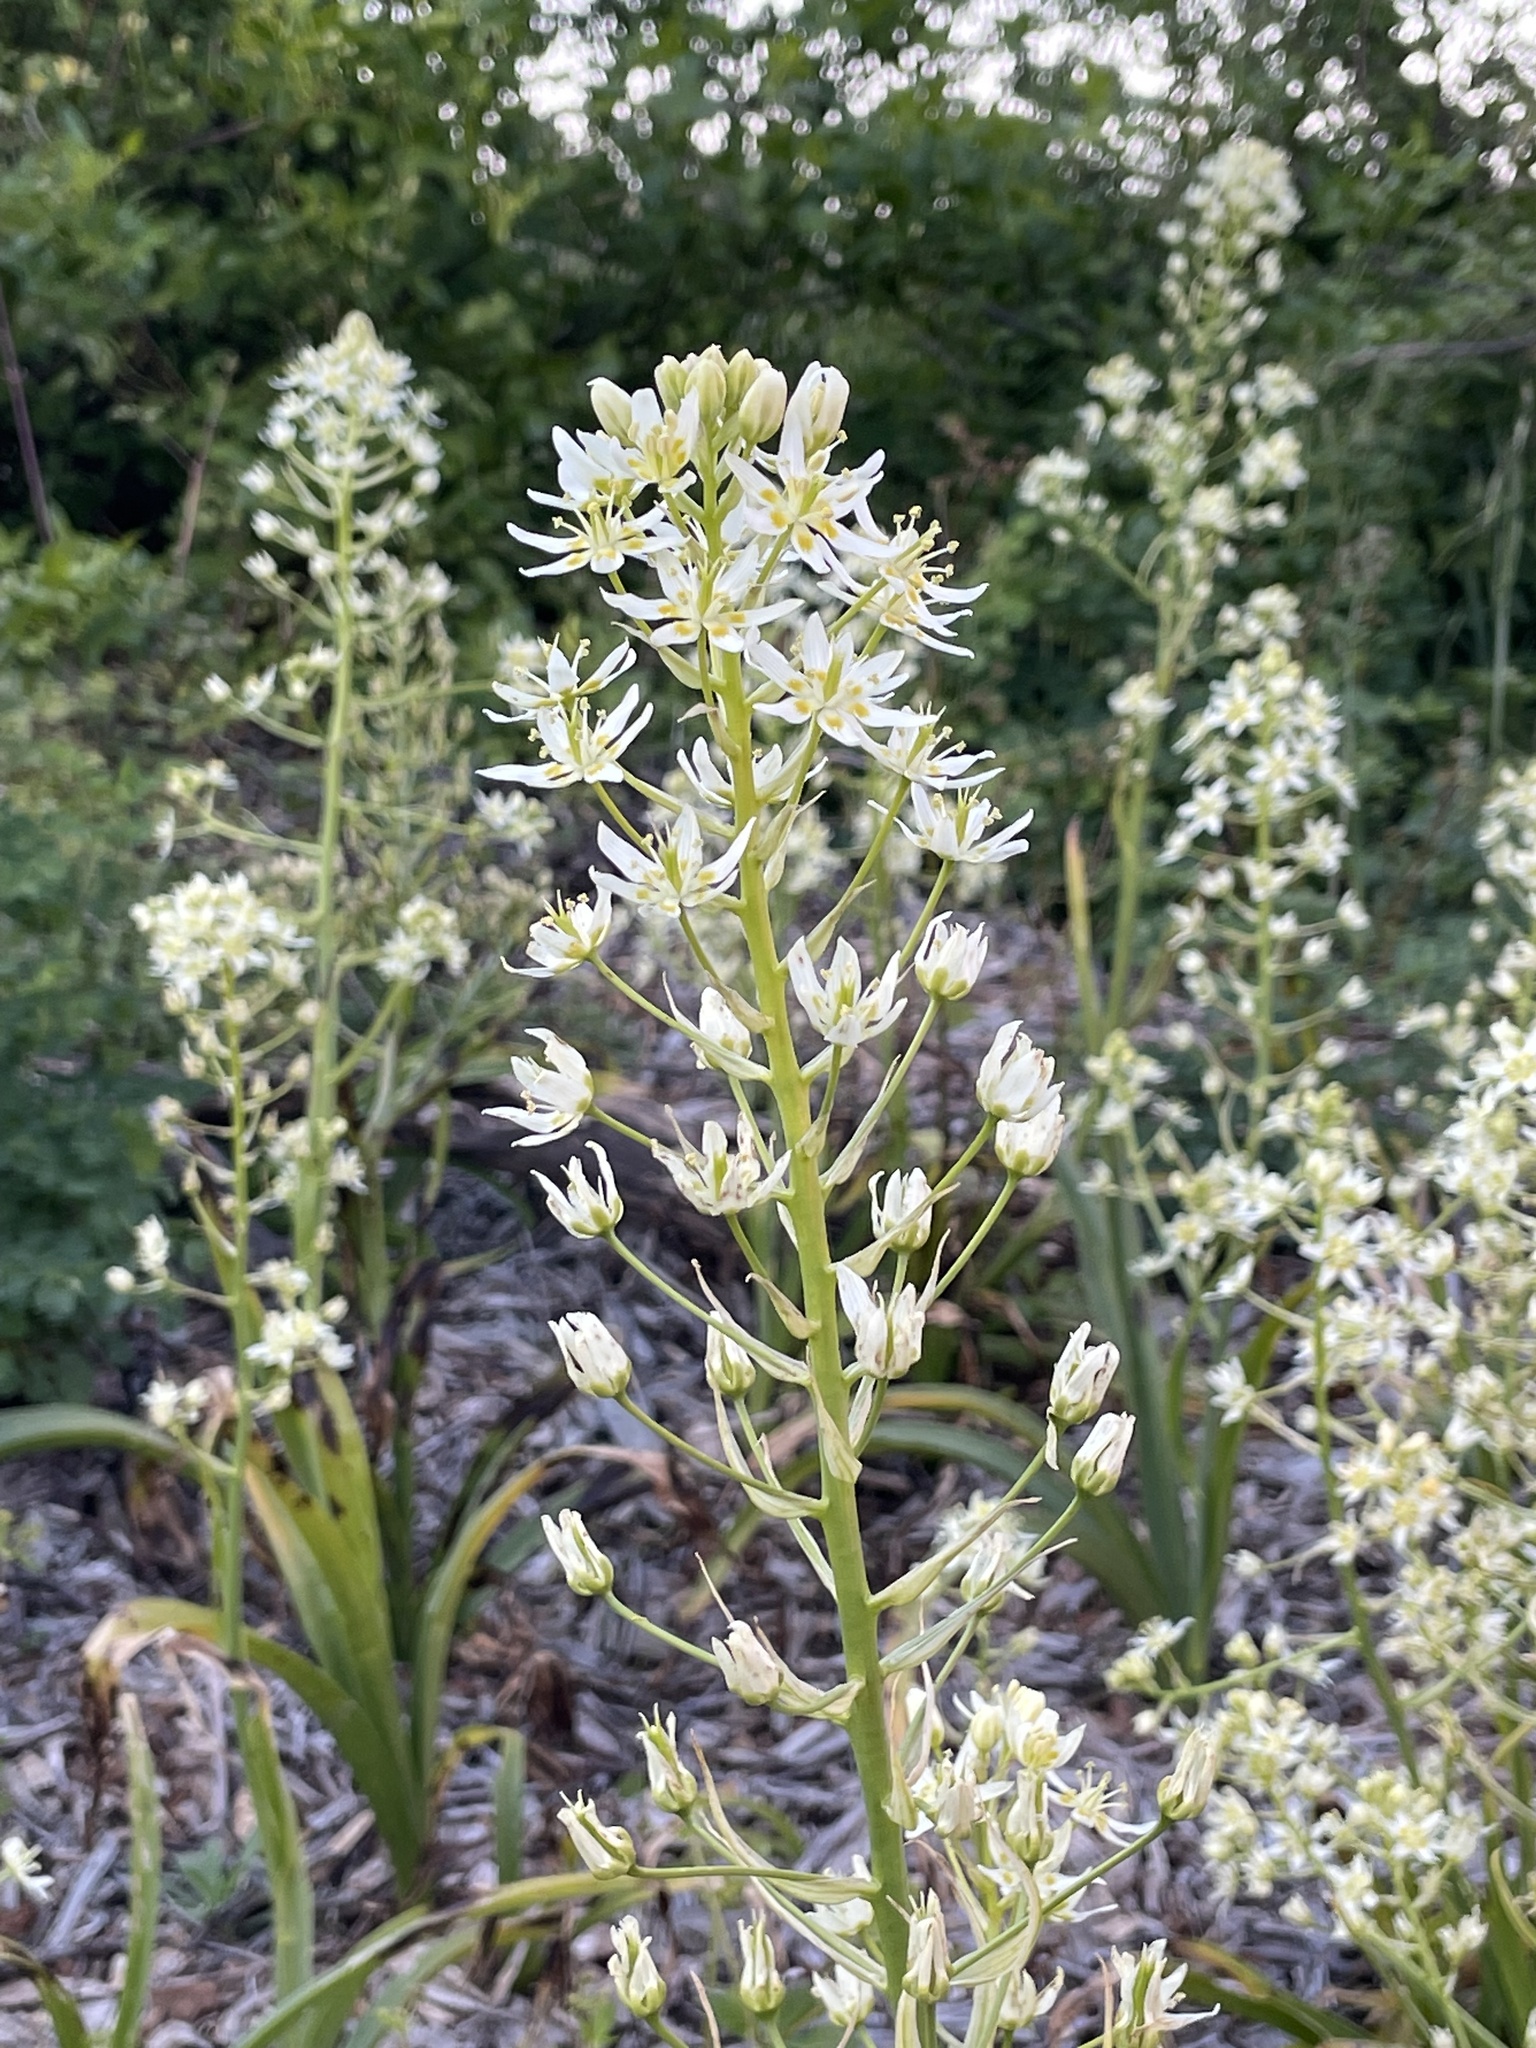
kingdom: Plantae
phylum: Tracheophyta
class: Liliopsida
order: Liliales
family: Melanthiaceae
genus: Toxicoscordion
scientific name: Toxicoscordion fremontii
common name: Fremont's death camas
